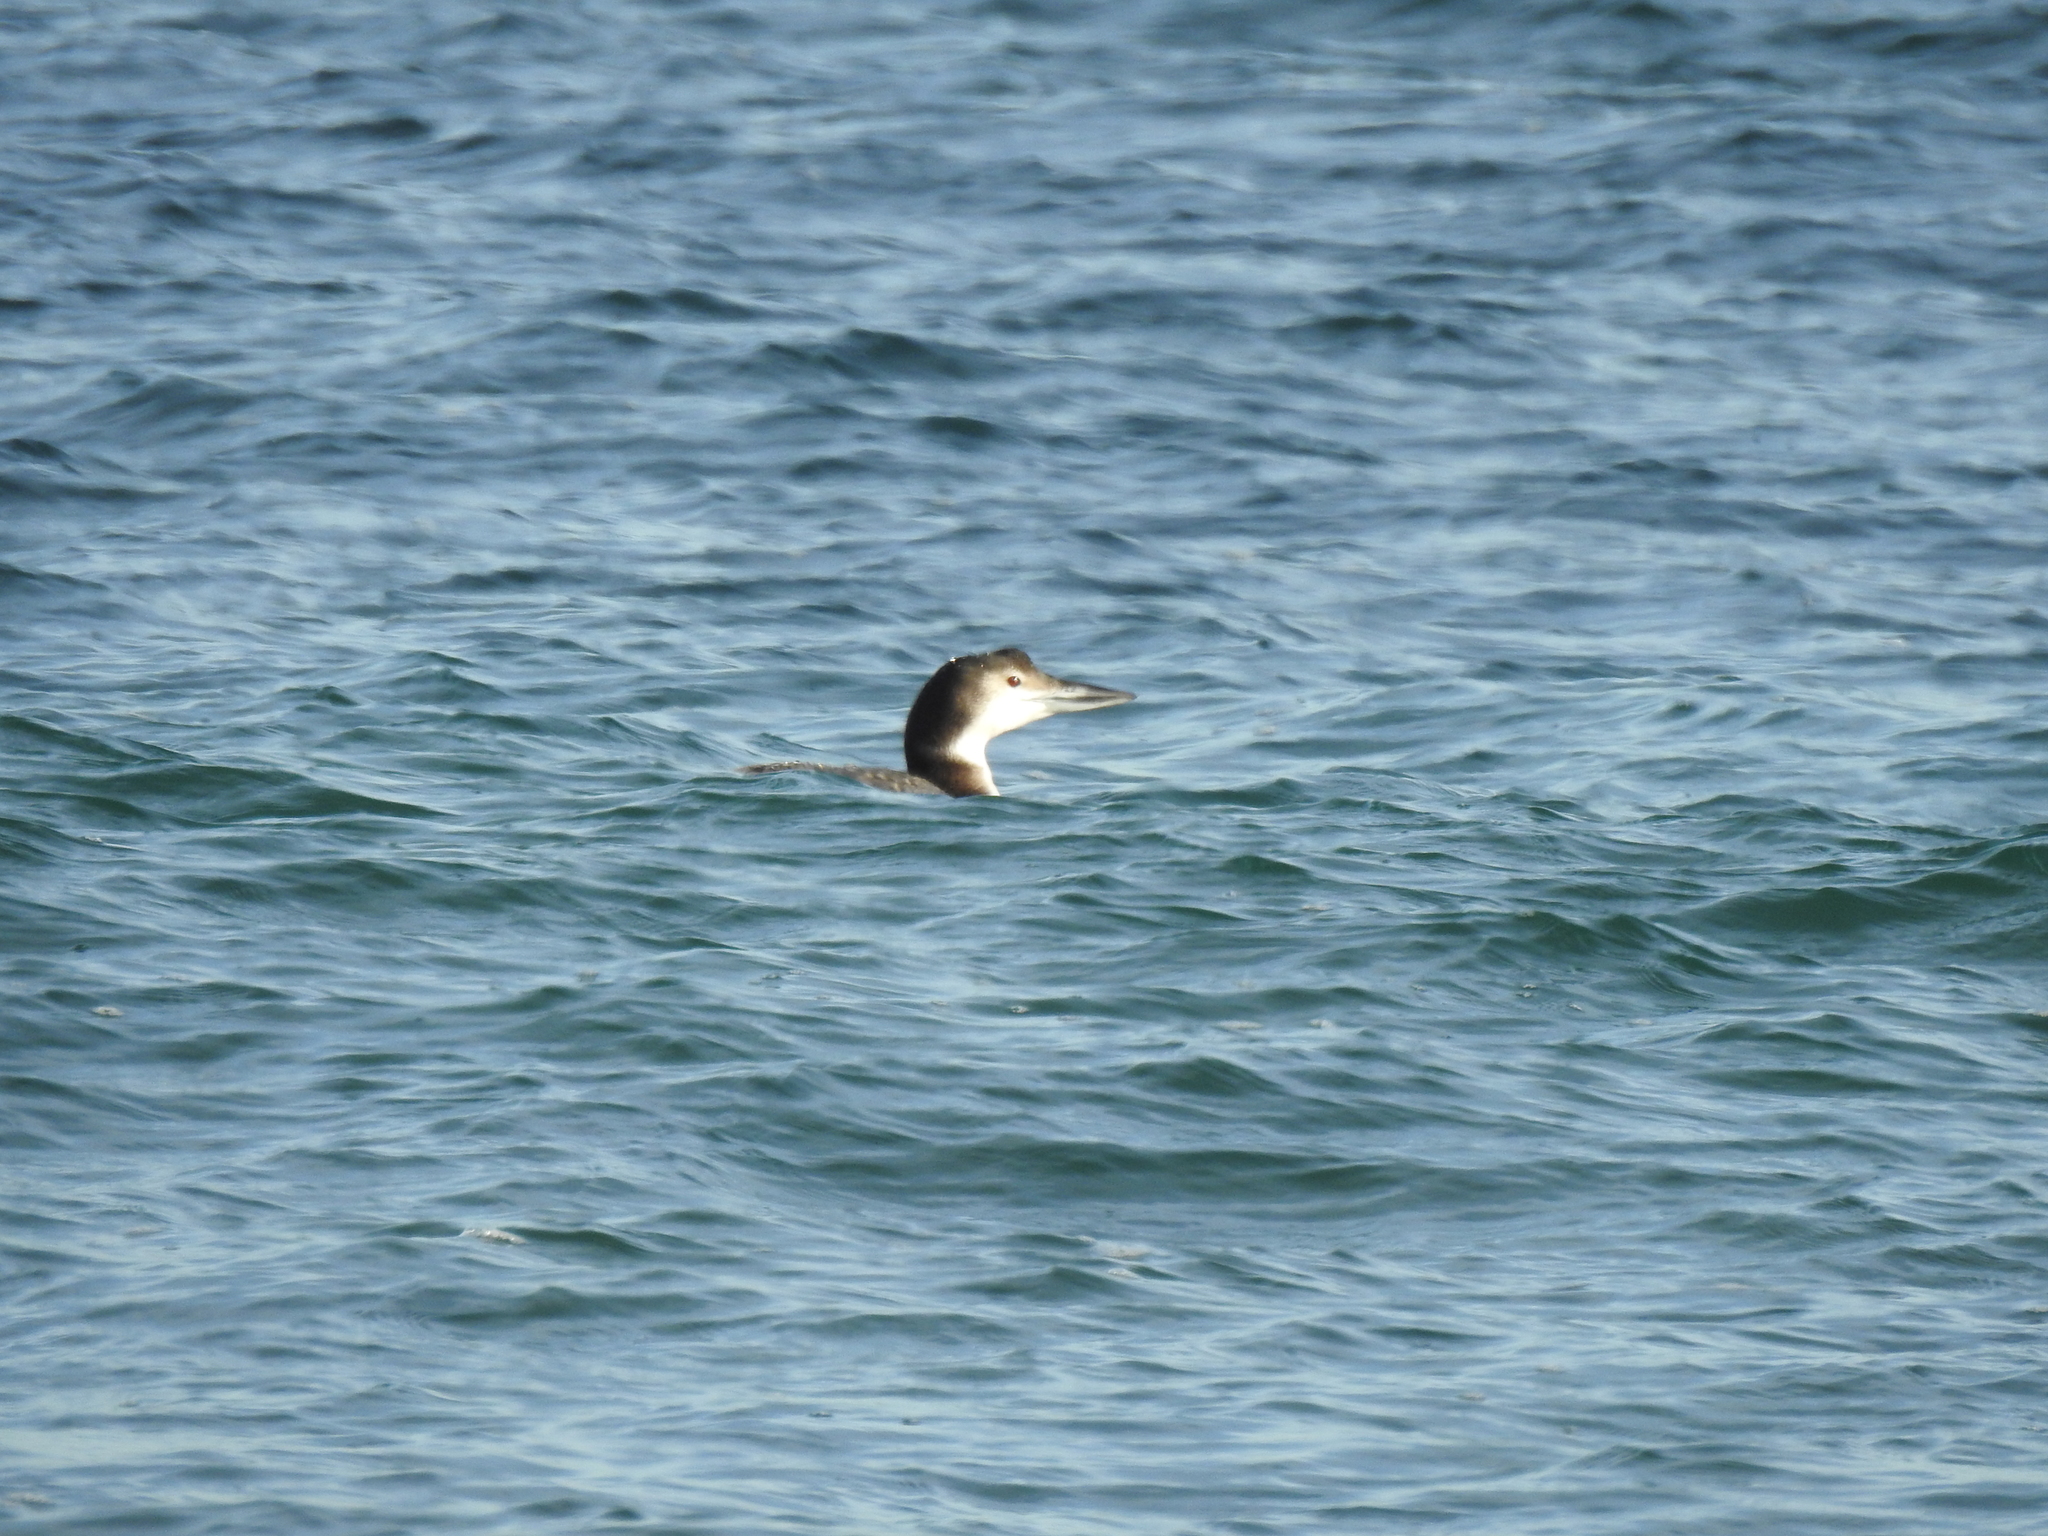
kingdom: Animalia
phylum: Chordata
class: Aves
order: Gaviiformes
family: Gaviidae
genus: Gavia
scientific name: Gavia immer
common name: Common loon
